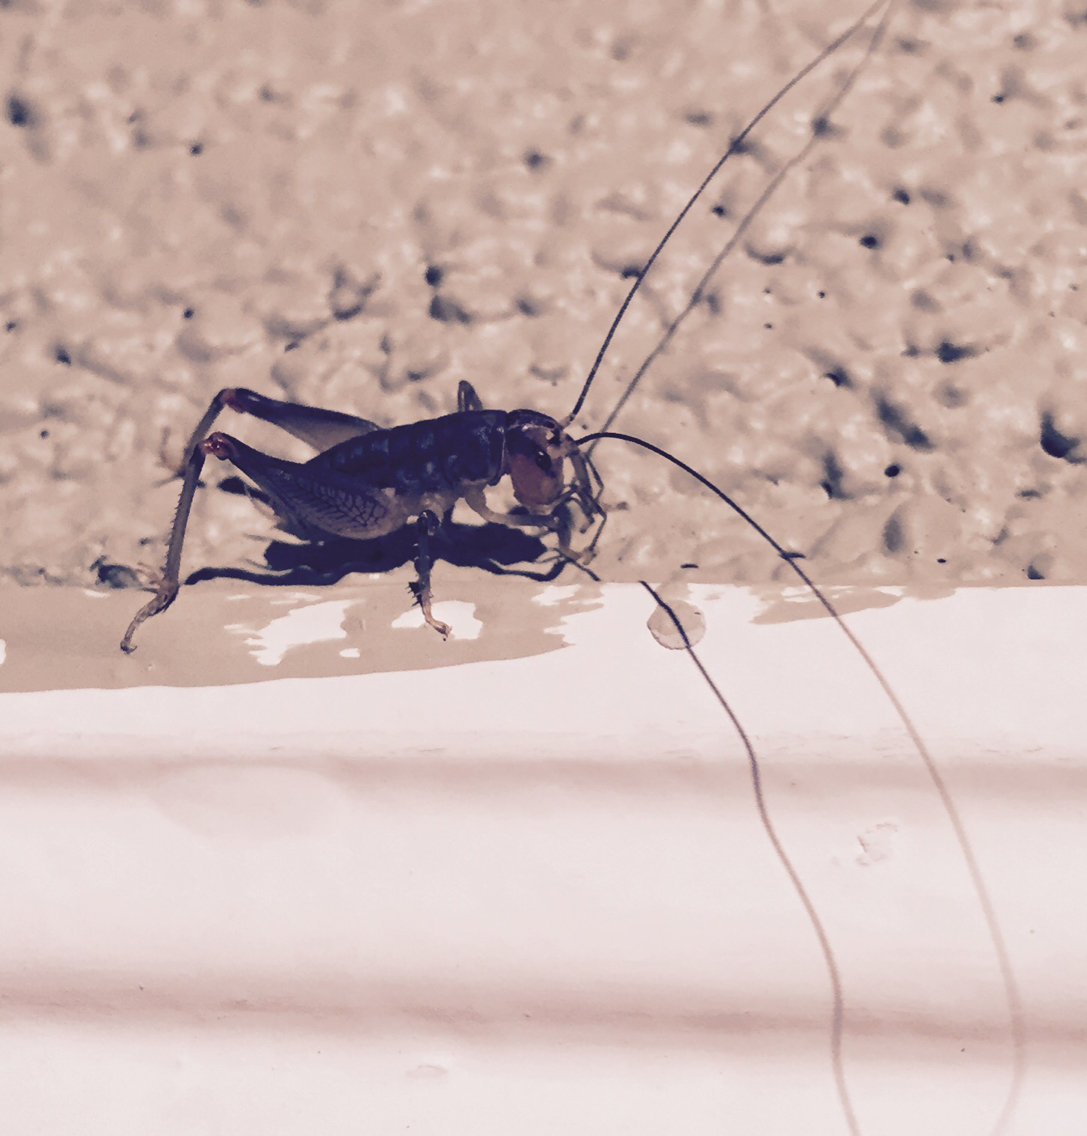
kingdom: Animalia
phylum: Arthropoda
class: Insecta
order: Orthoptera
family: Anostostomatidae
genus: Cnemotettix
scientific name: Cnemotettix bifasciatus
